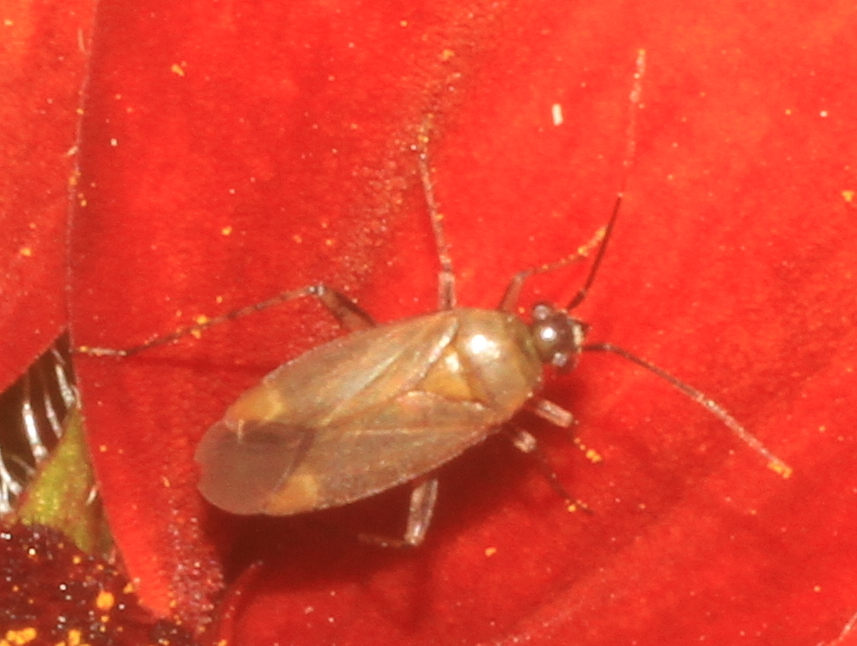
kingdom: Animalia
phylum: Arthropoda
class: Insecta
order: Hemiptera
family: Miridae
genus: Plagiognathus
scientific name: Plagiognathus arbustorum
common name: Plant bug
